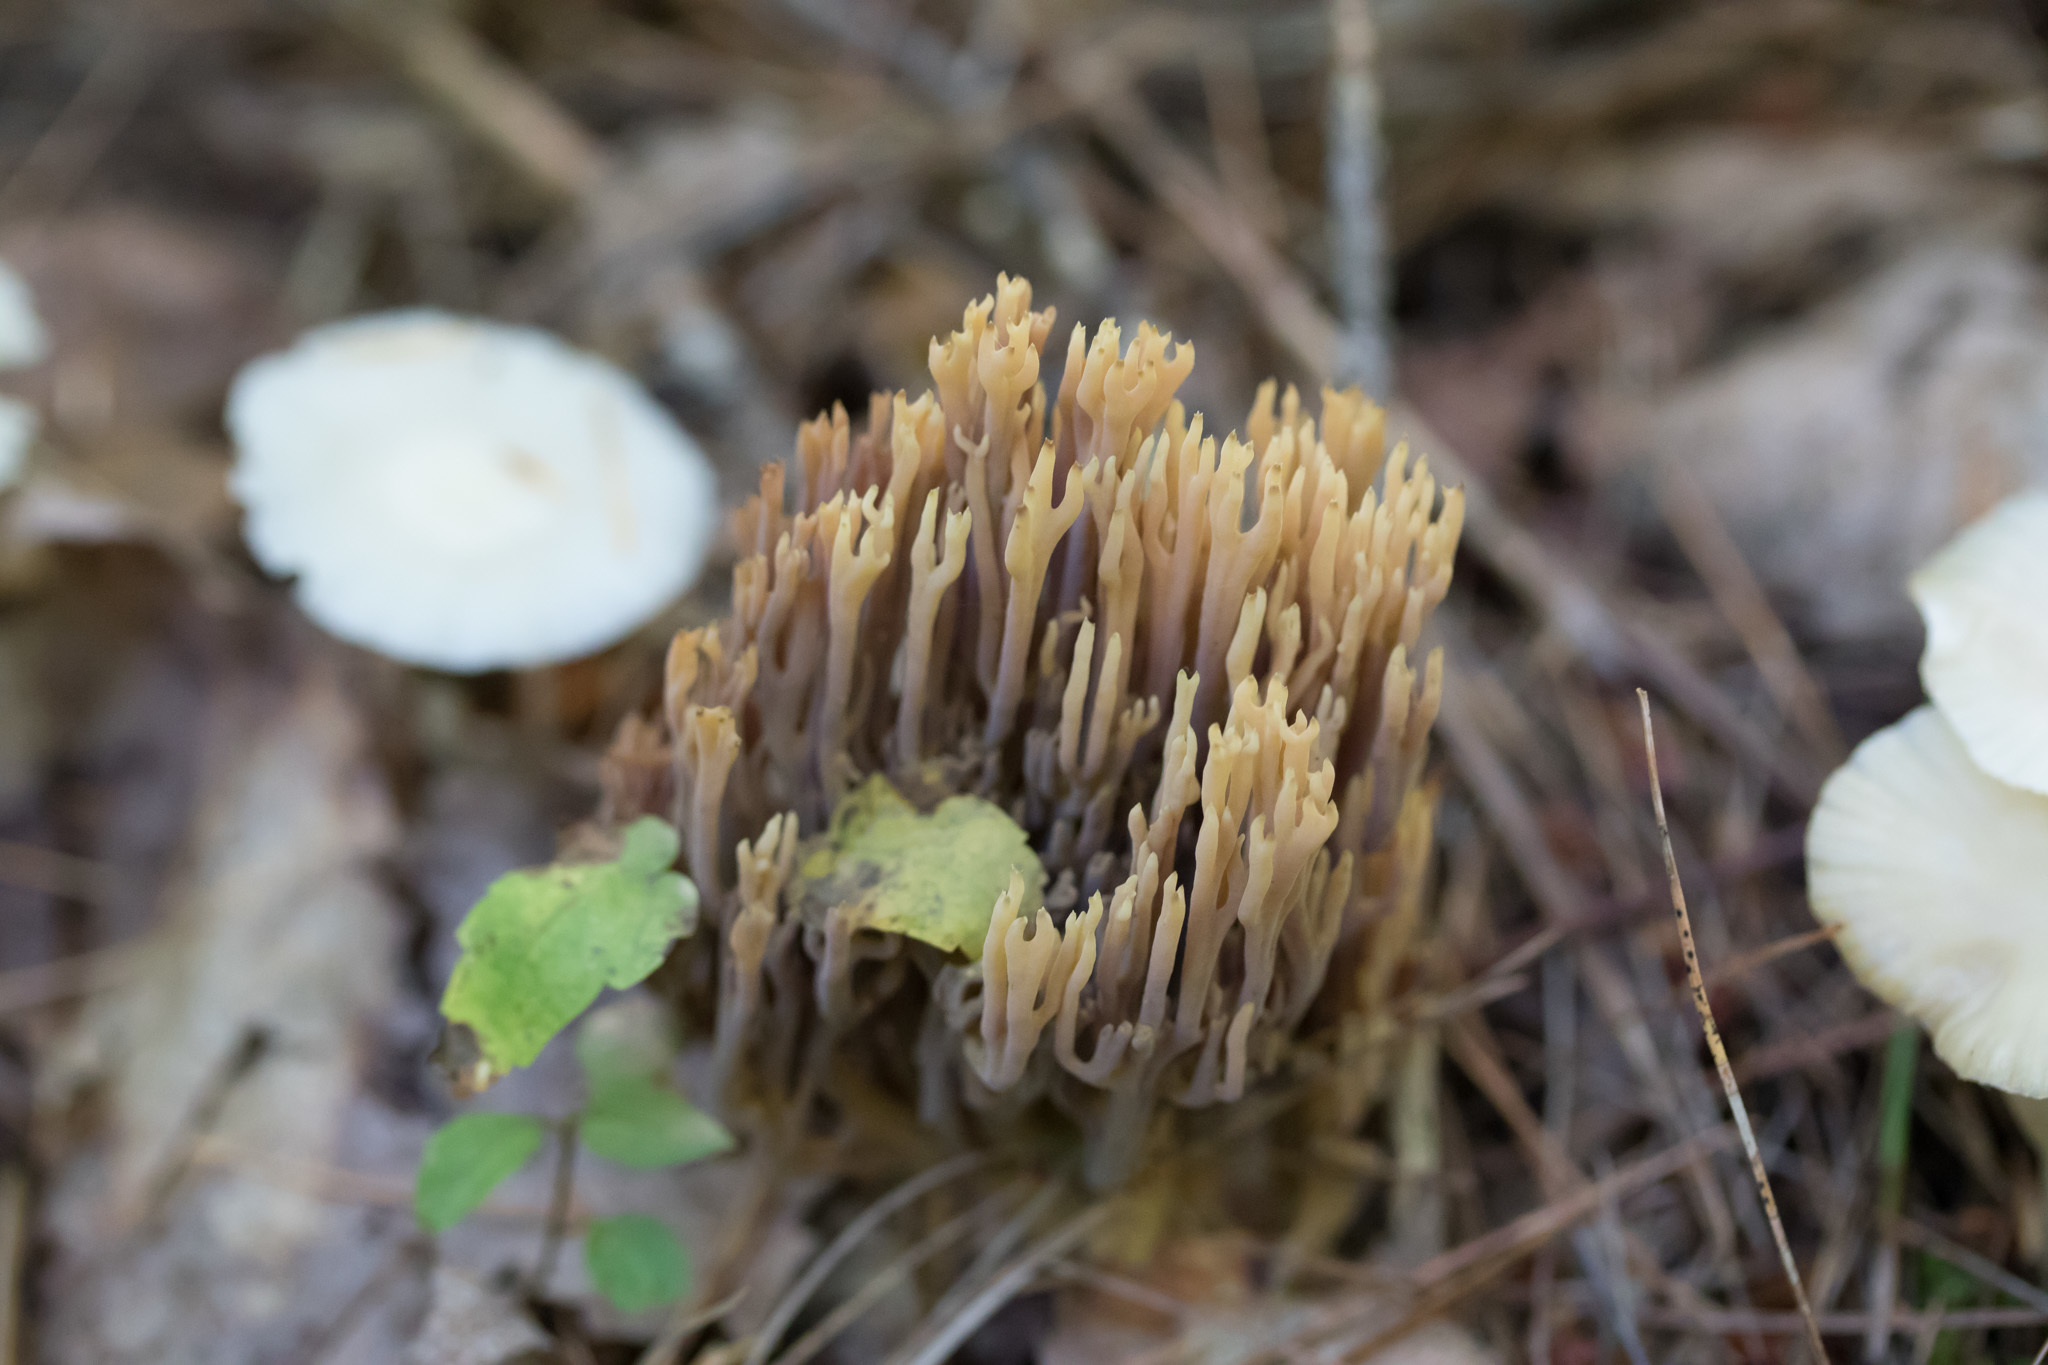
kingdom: Fungi
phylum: Basidiomycota
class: Agaricomycetes
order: Gomphales
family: Gomphaceae
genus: Ramaria
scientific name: Ramaria stricta
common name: Upright coral
